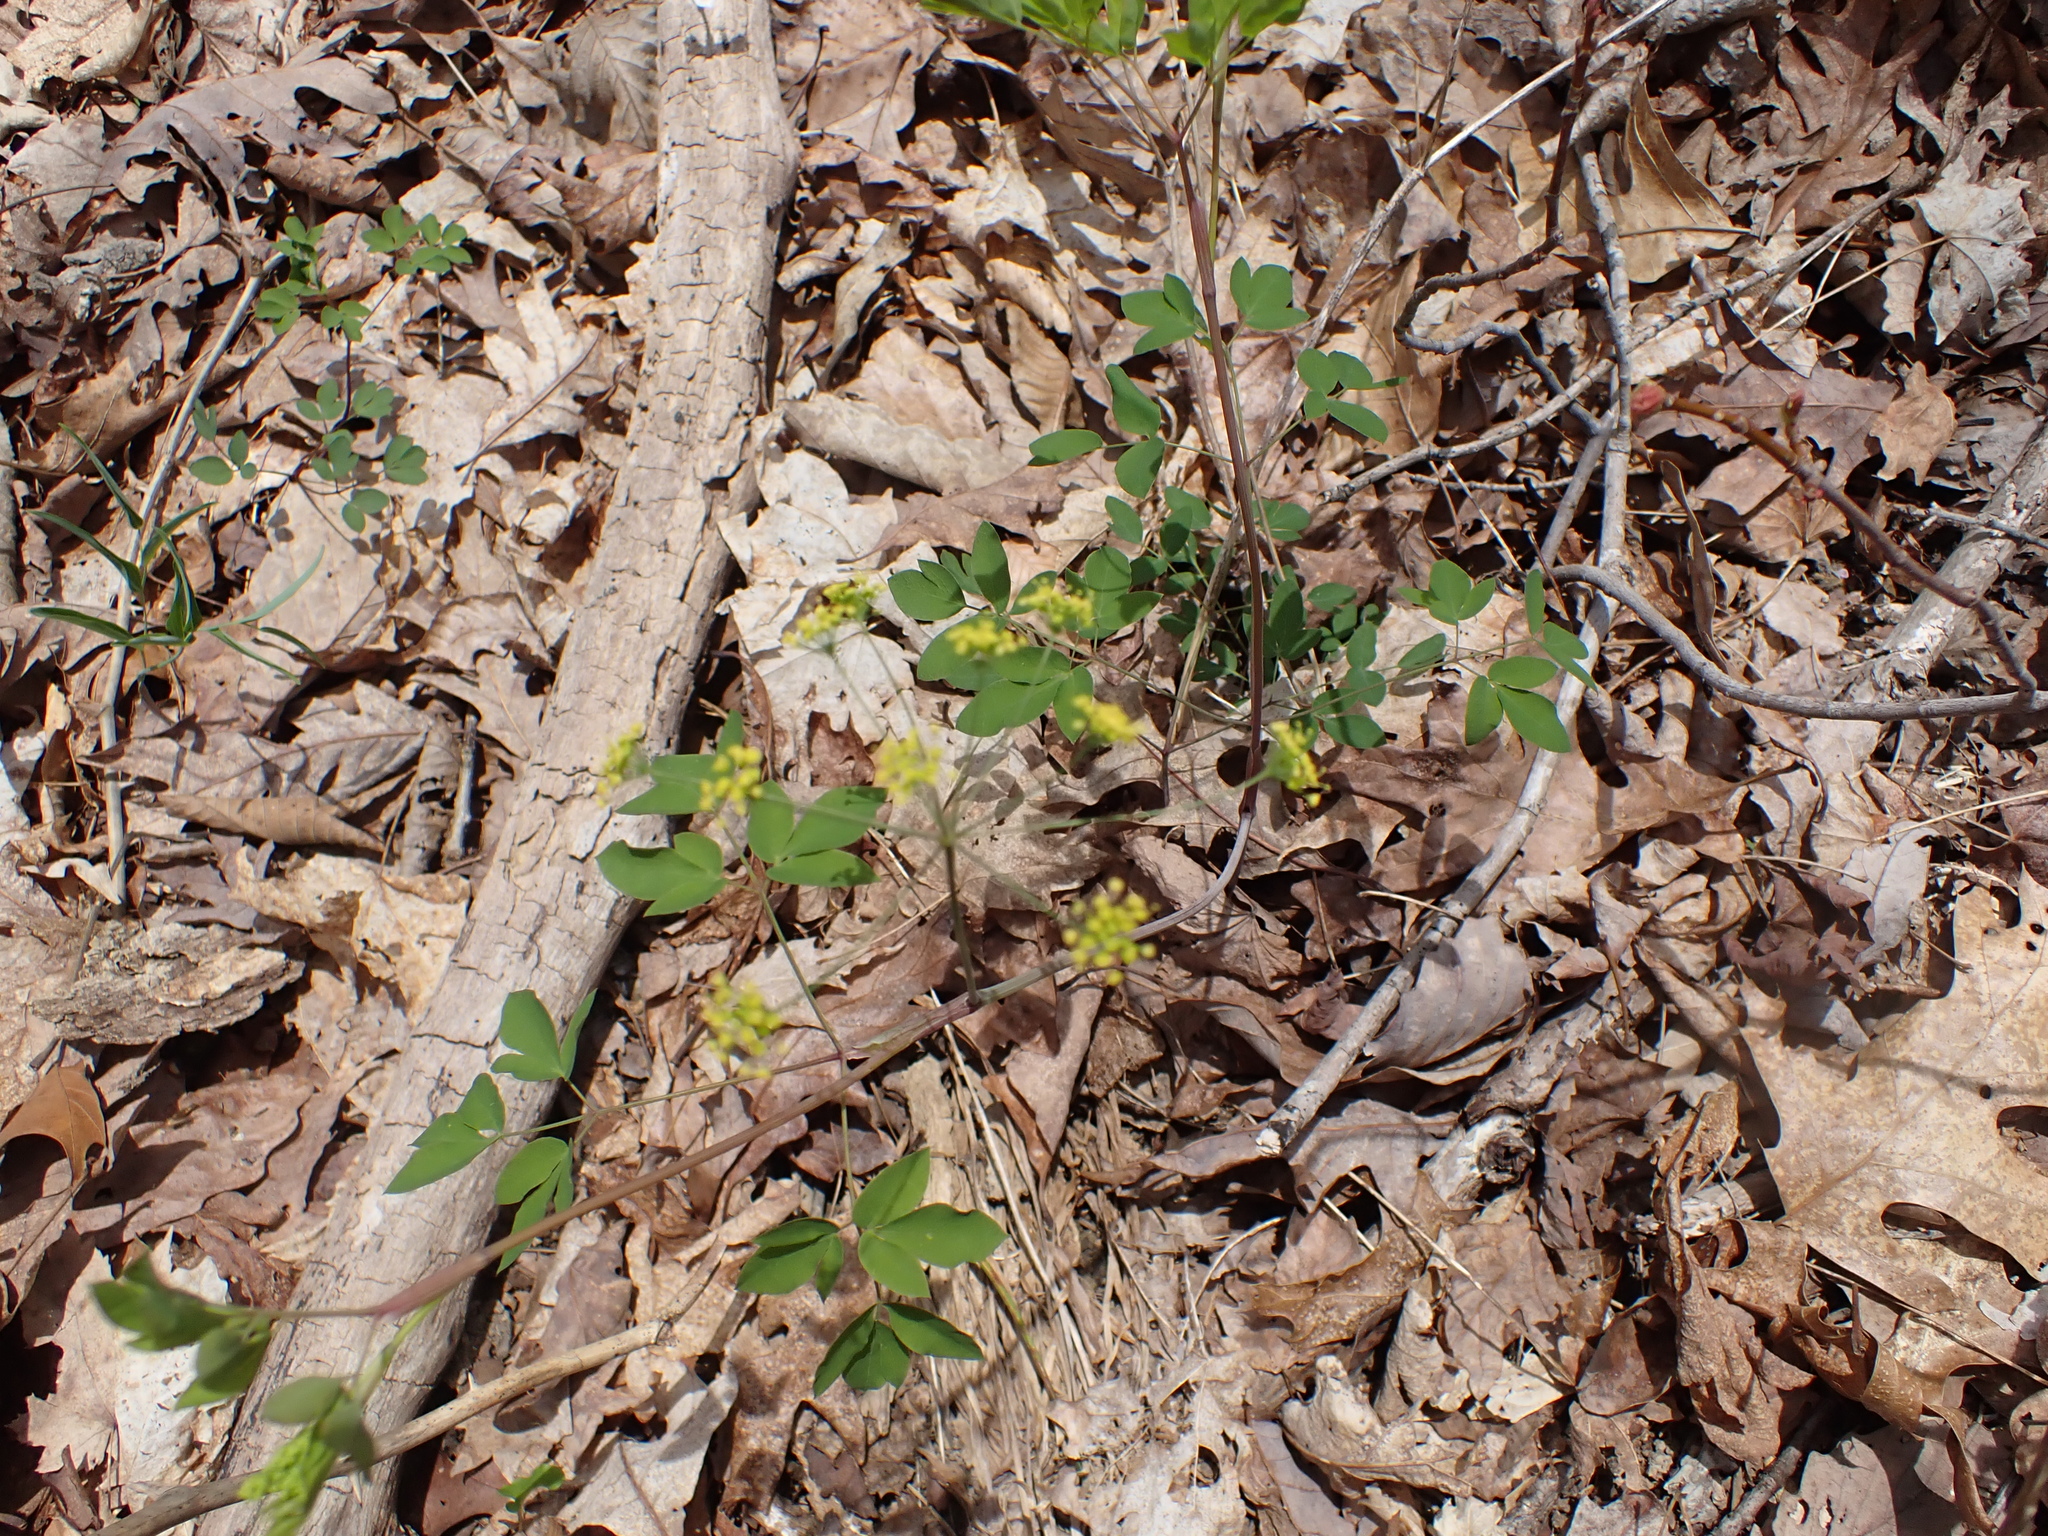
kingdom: Plantae
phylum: Tracheophyta
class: Magnoliopsida
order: Apiales
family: Apiaceae
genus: Taenidia
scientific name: Taenidia integerrima
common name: Golden alexander
